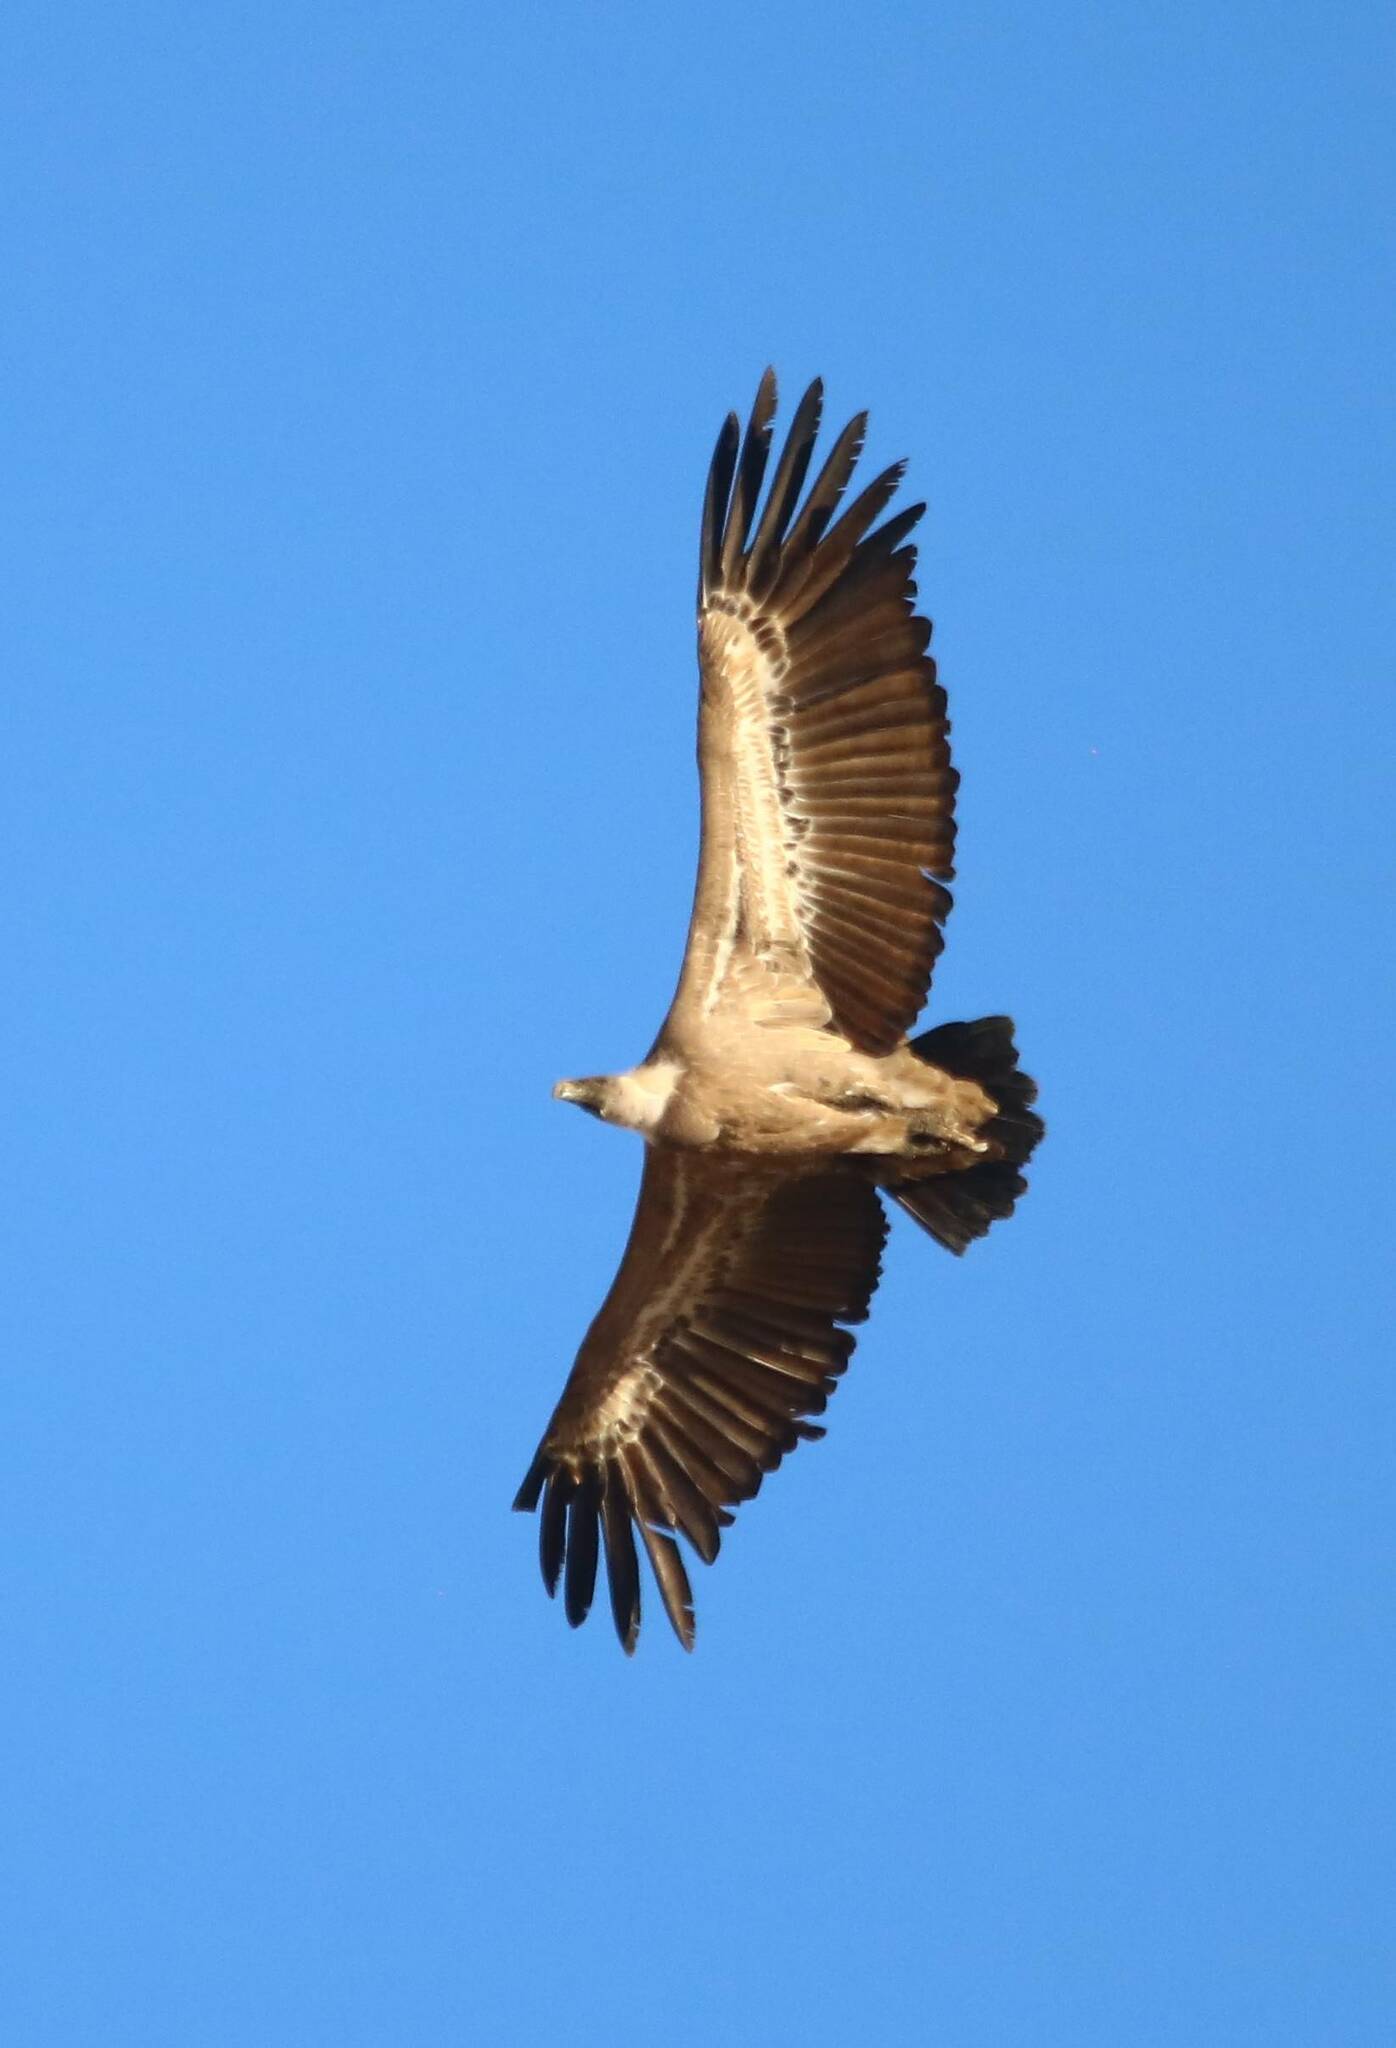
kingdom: Animalia
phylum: Chordata
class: Aves
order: Accipitriformes
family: Accipitridae
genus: Gyps
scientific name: Gyps fulvus
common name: Griffon vulture
